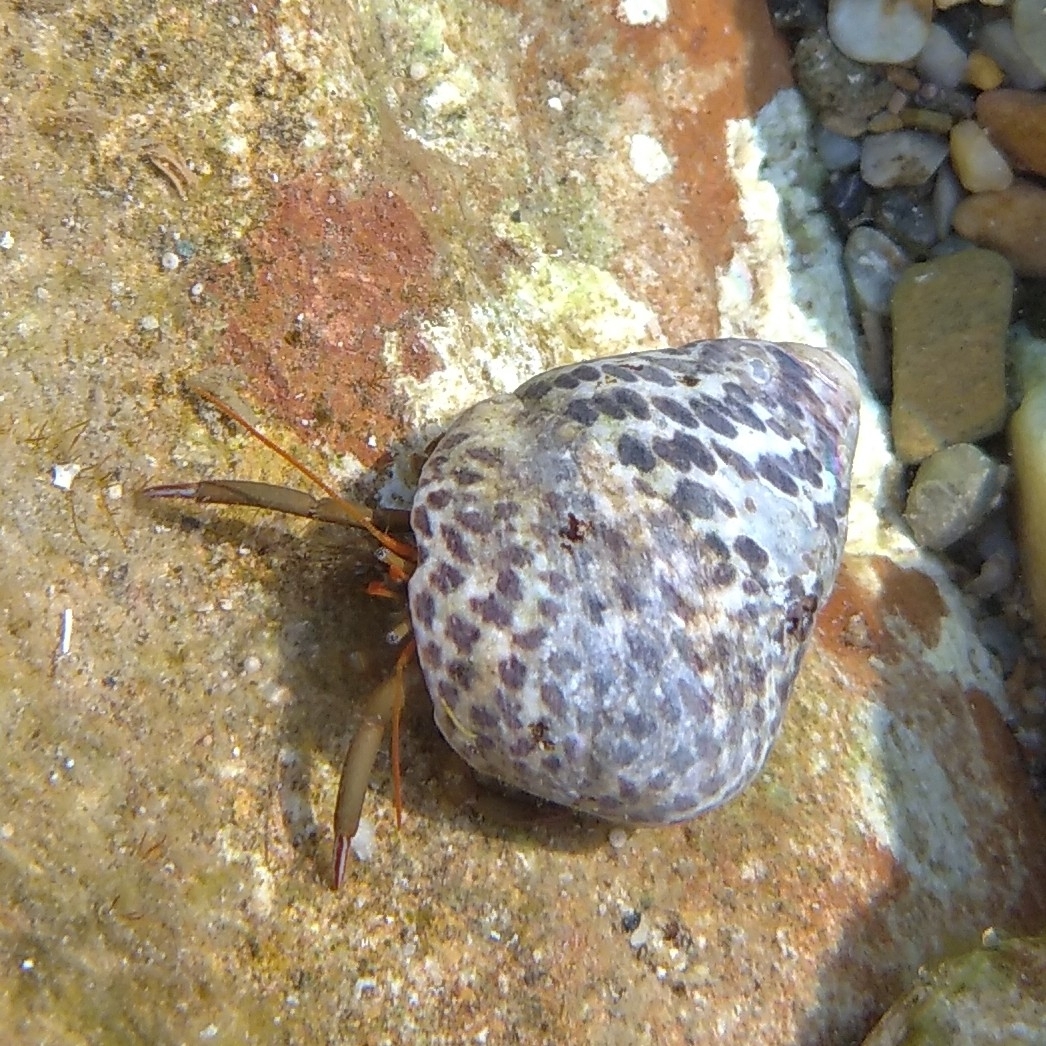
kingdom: Animalia
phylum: Arthropoda
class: Malacostraca
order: Decapoda
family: Diogenidae
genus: Clibanarius
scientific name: Clibanarius erythropus
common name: Hermit crab
